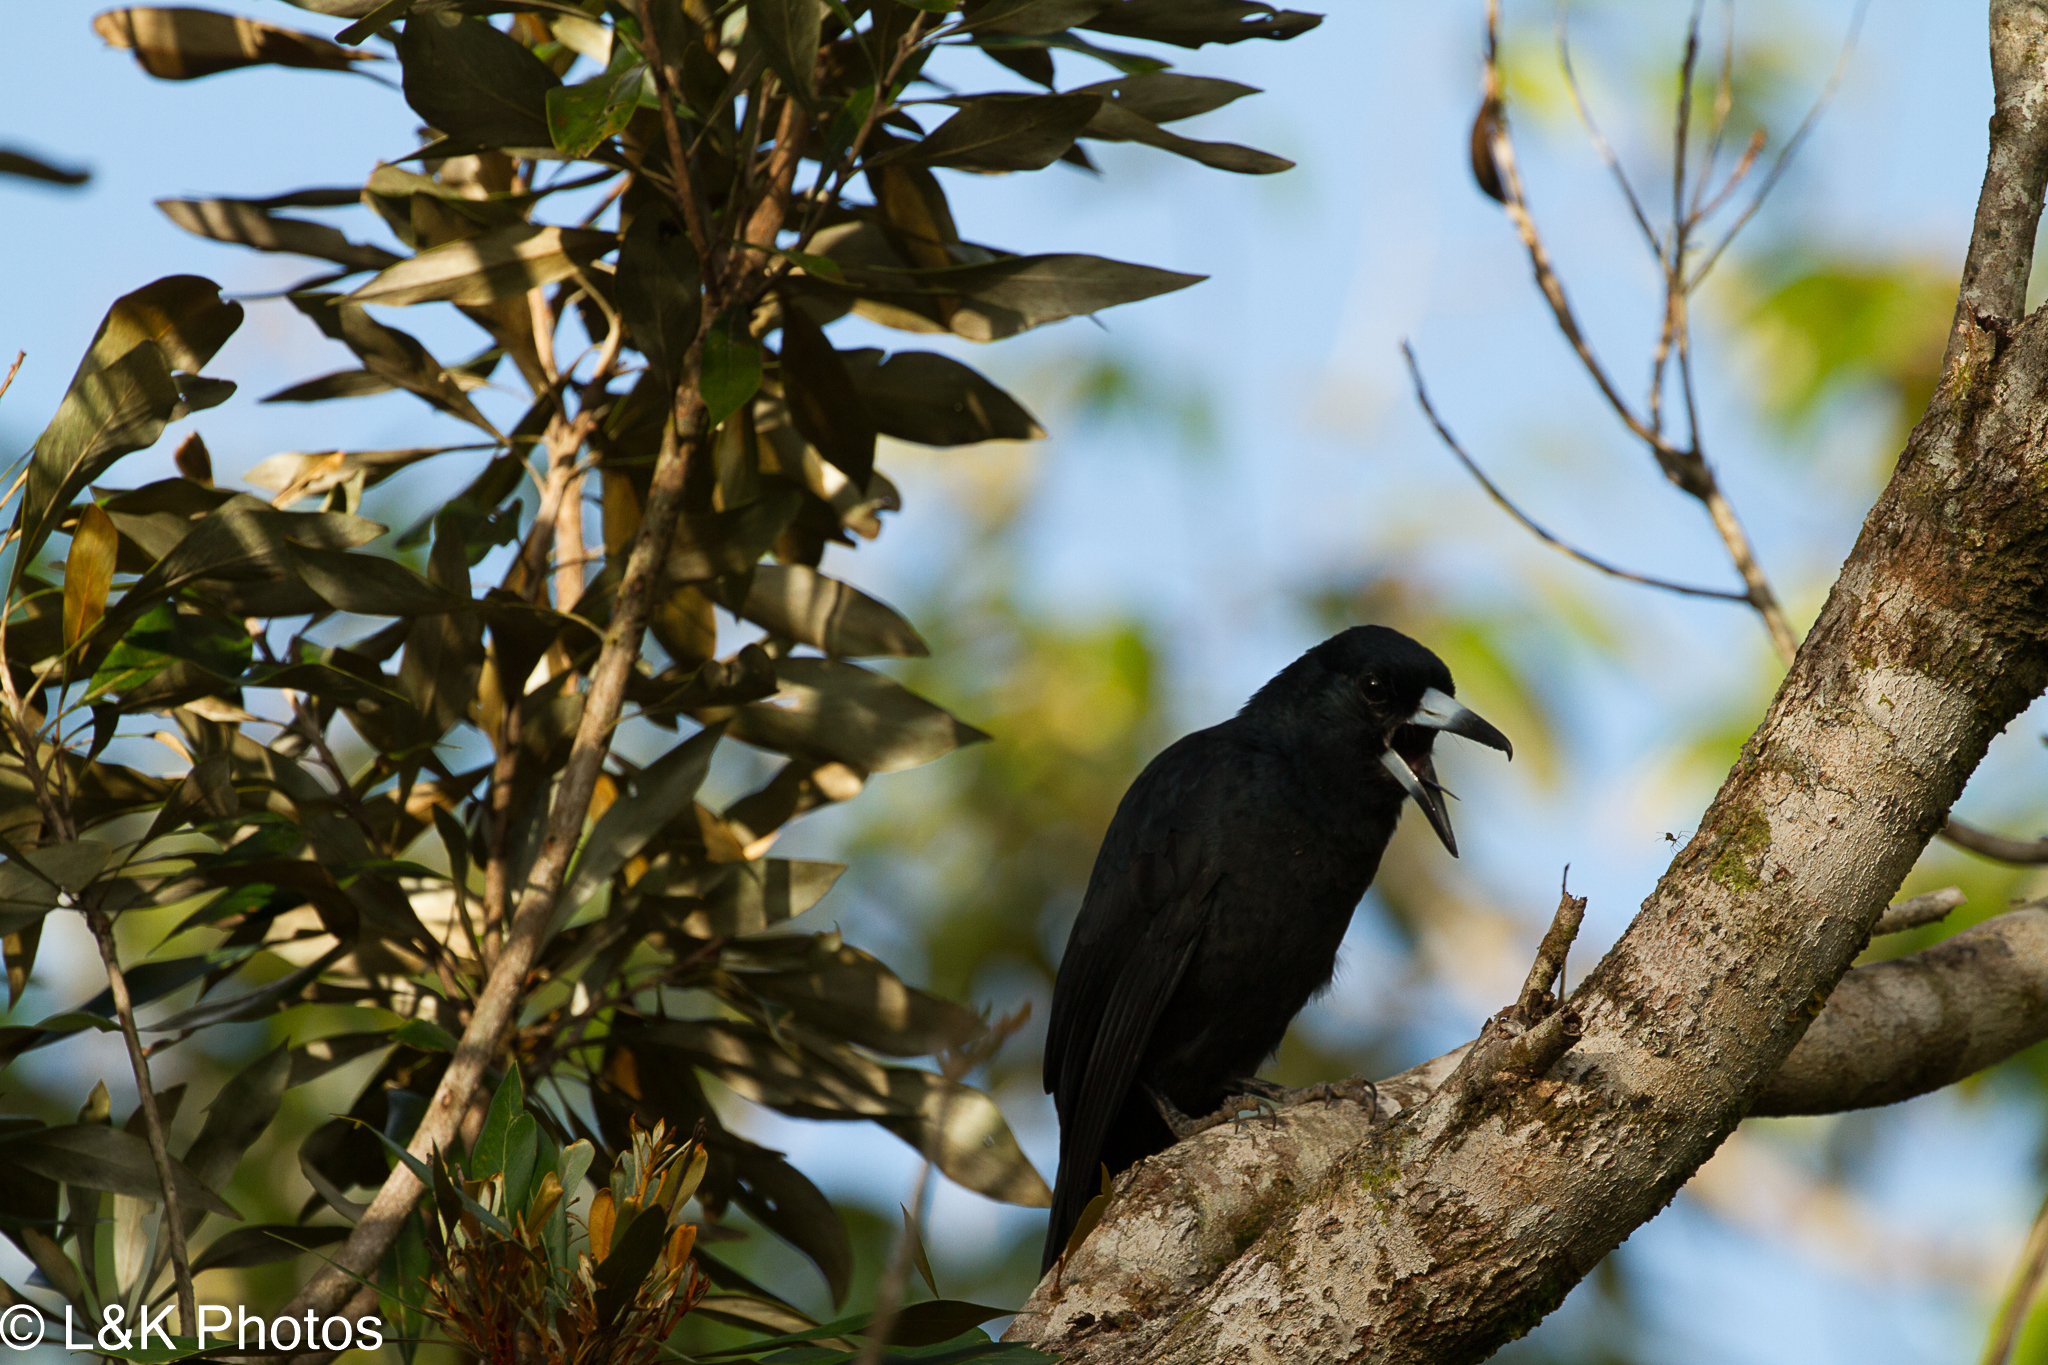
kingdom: Animalia
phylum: Chordata
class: Aves
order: Passeriformes
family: Artamidae
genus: Melloria
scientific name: Melloria quoyi
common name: Black butcherbird
